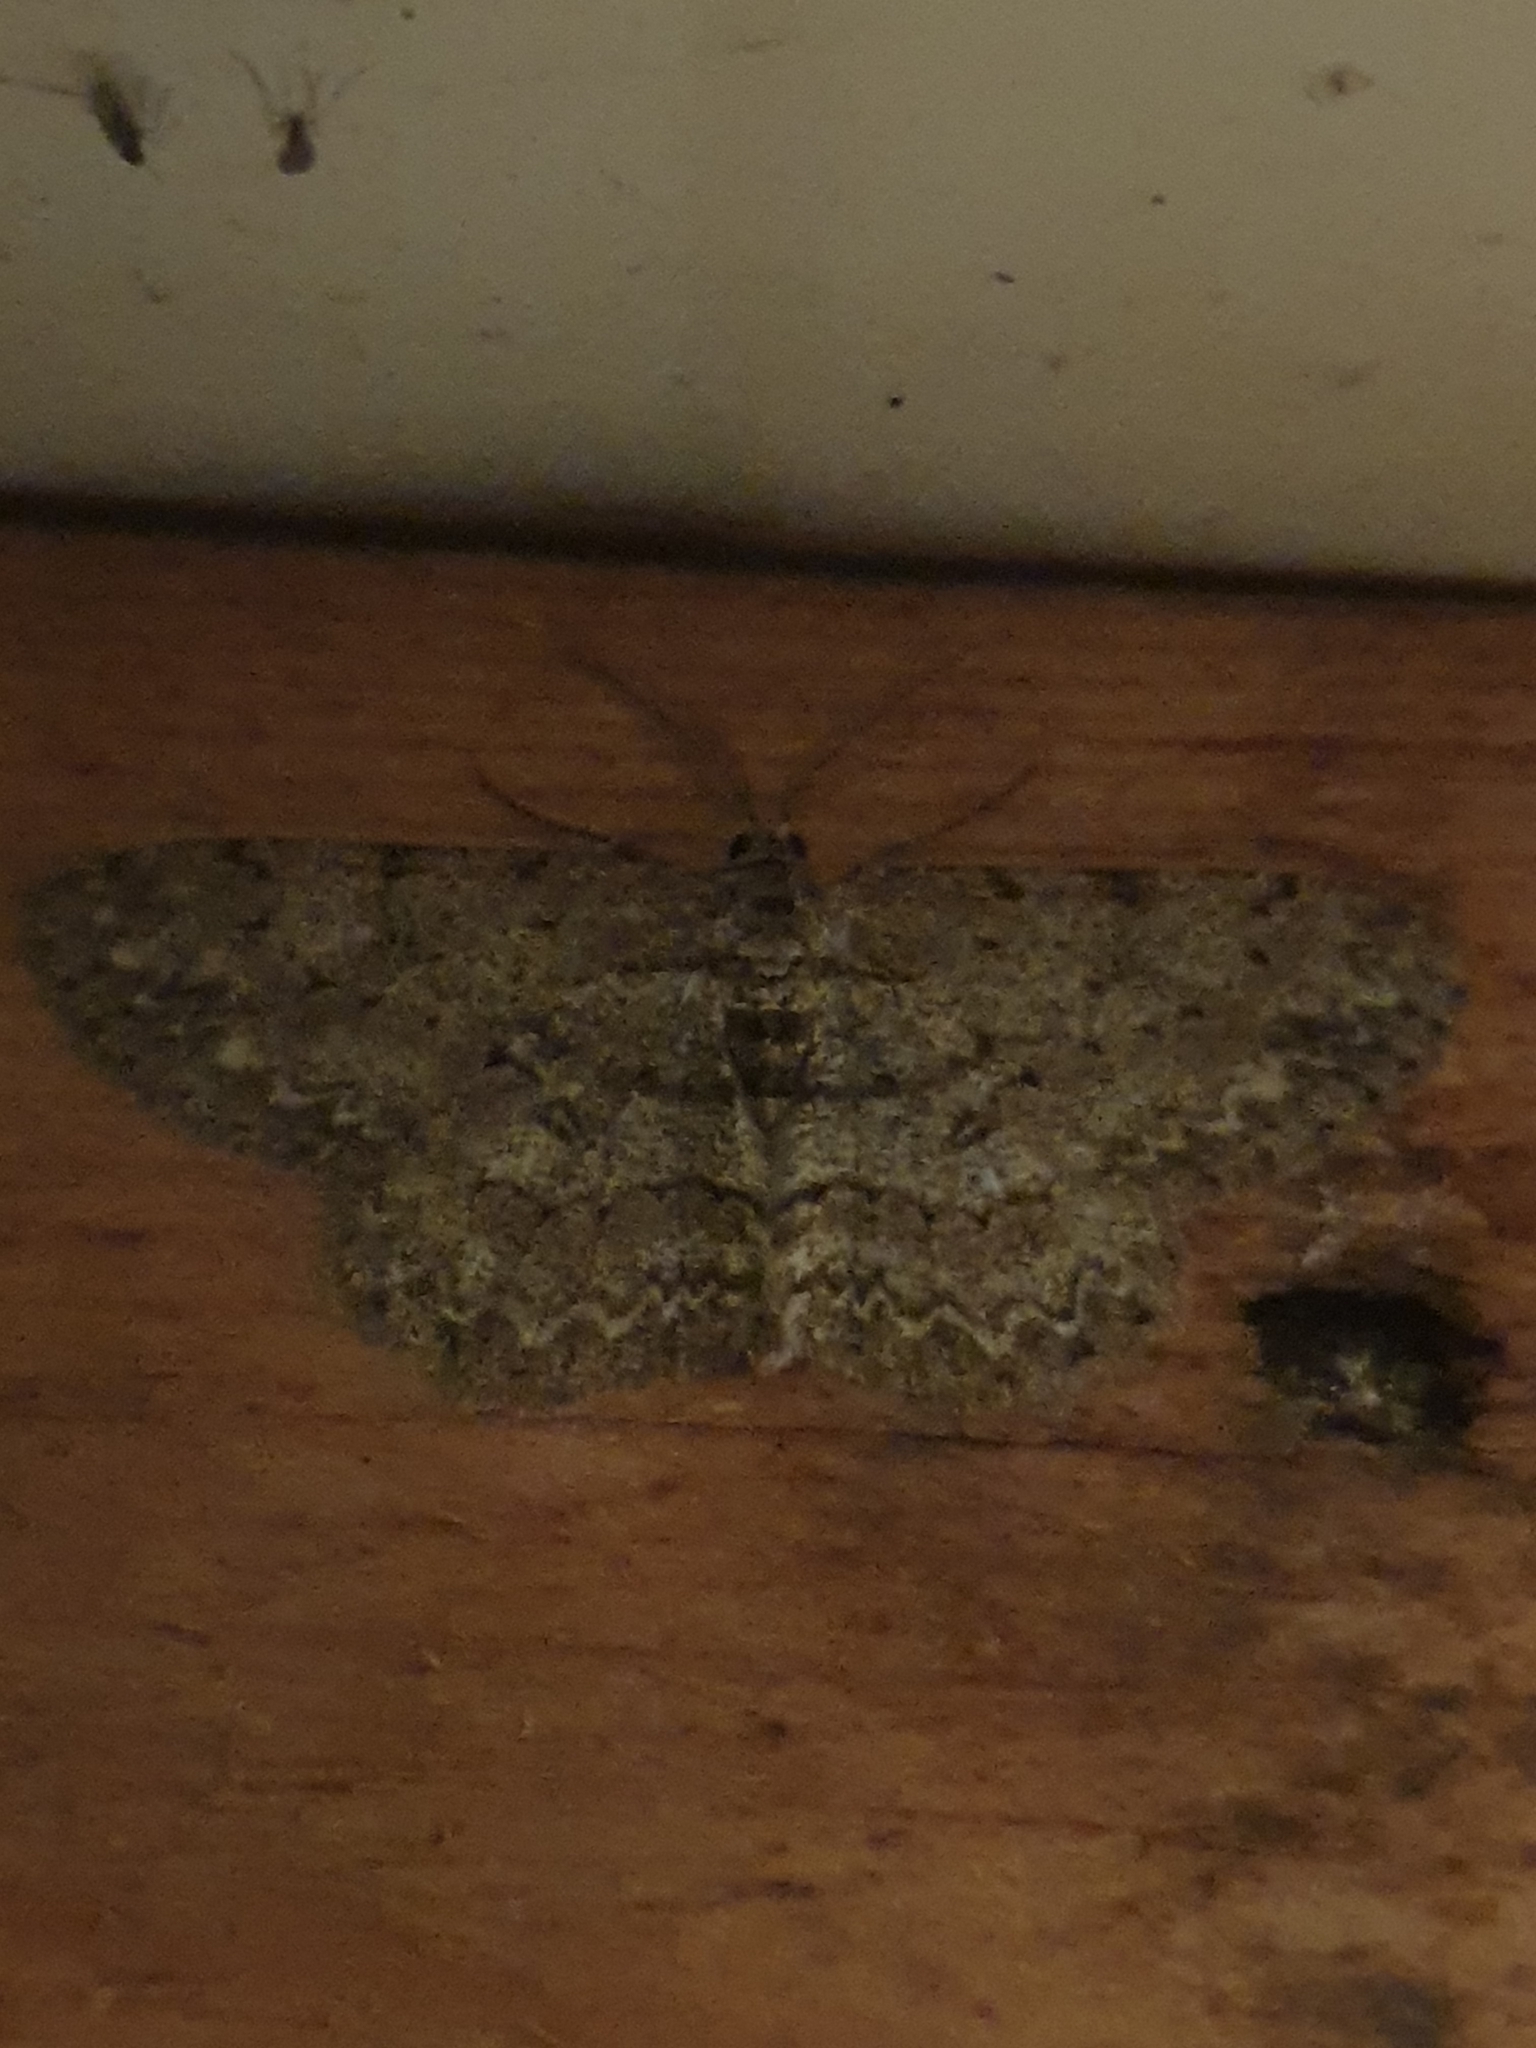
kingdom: Animalia
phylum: Arthropoda
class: Insecta
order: Lepidoptera
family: Geometridae
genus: Hypomecis
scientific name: Hypomecis punctinalis
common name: Pale oak beauty
